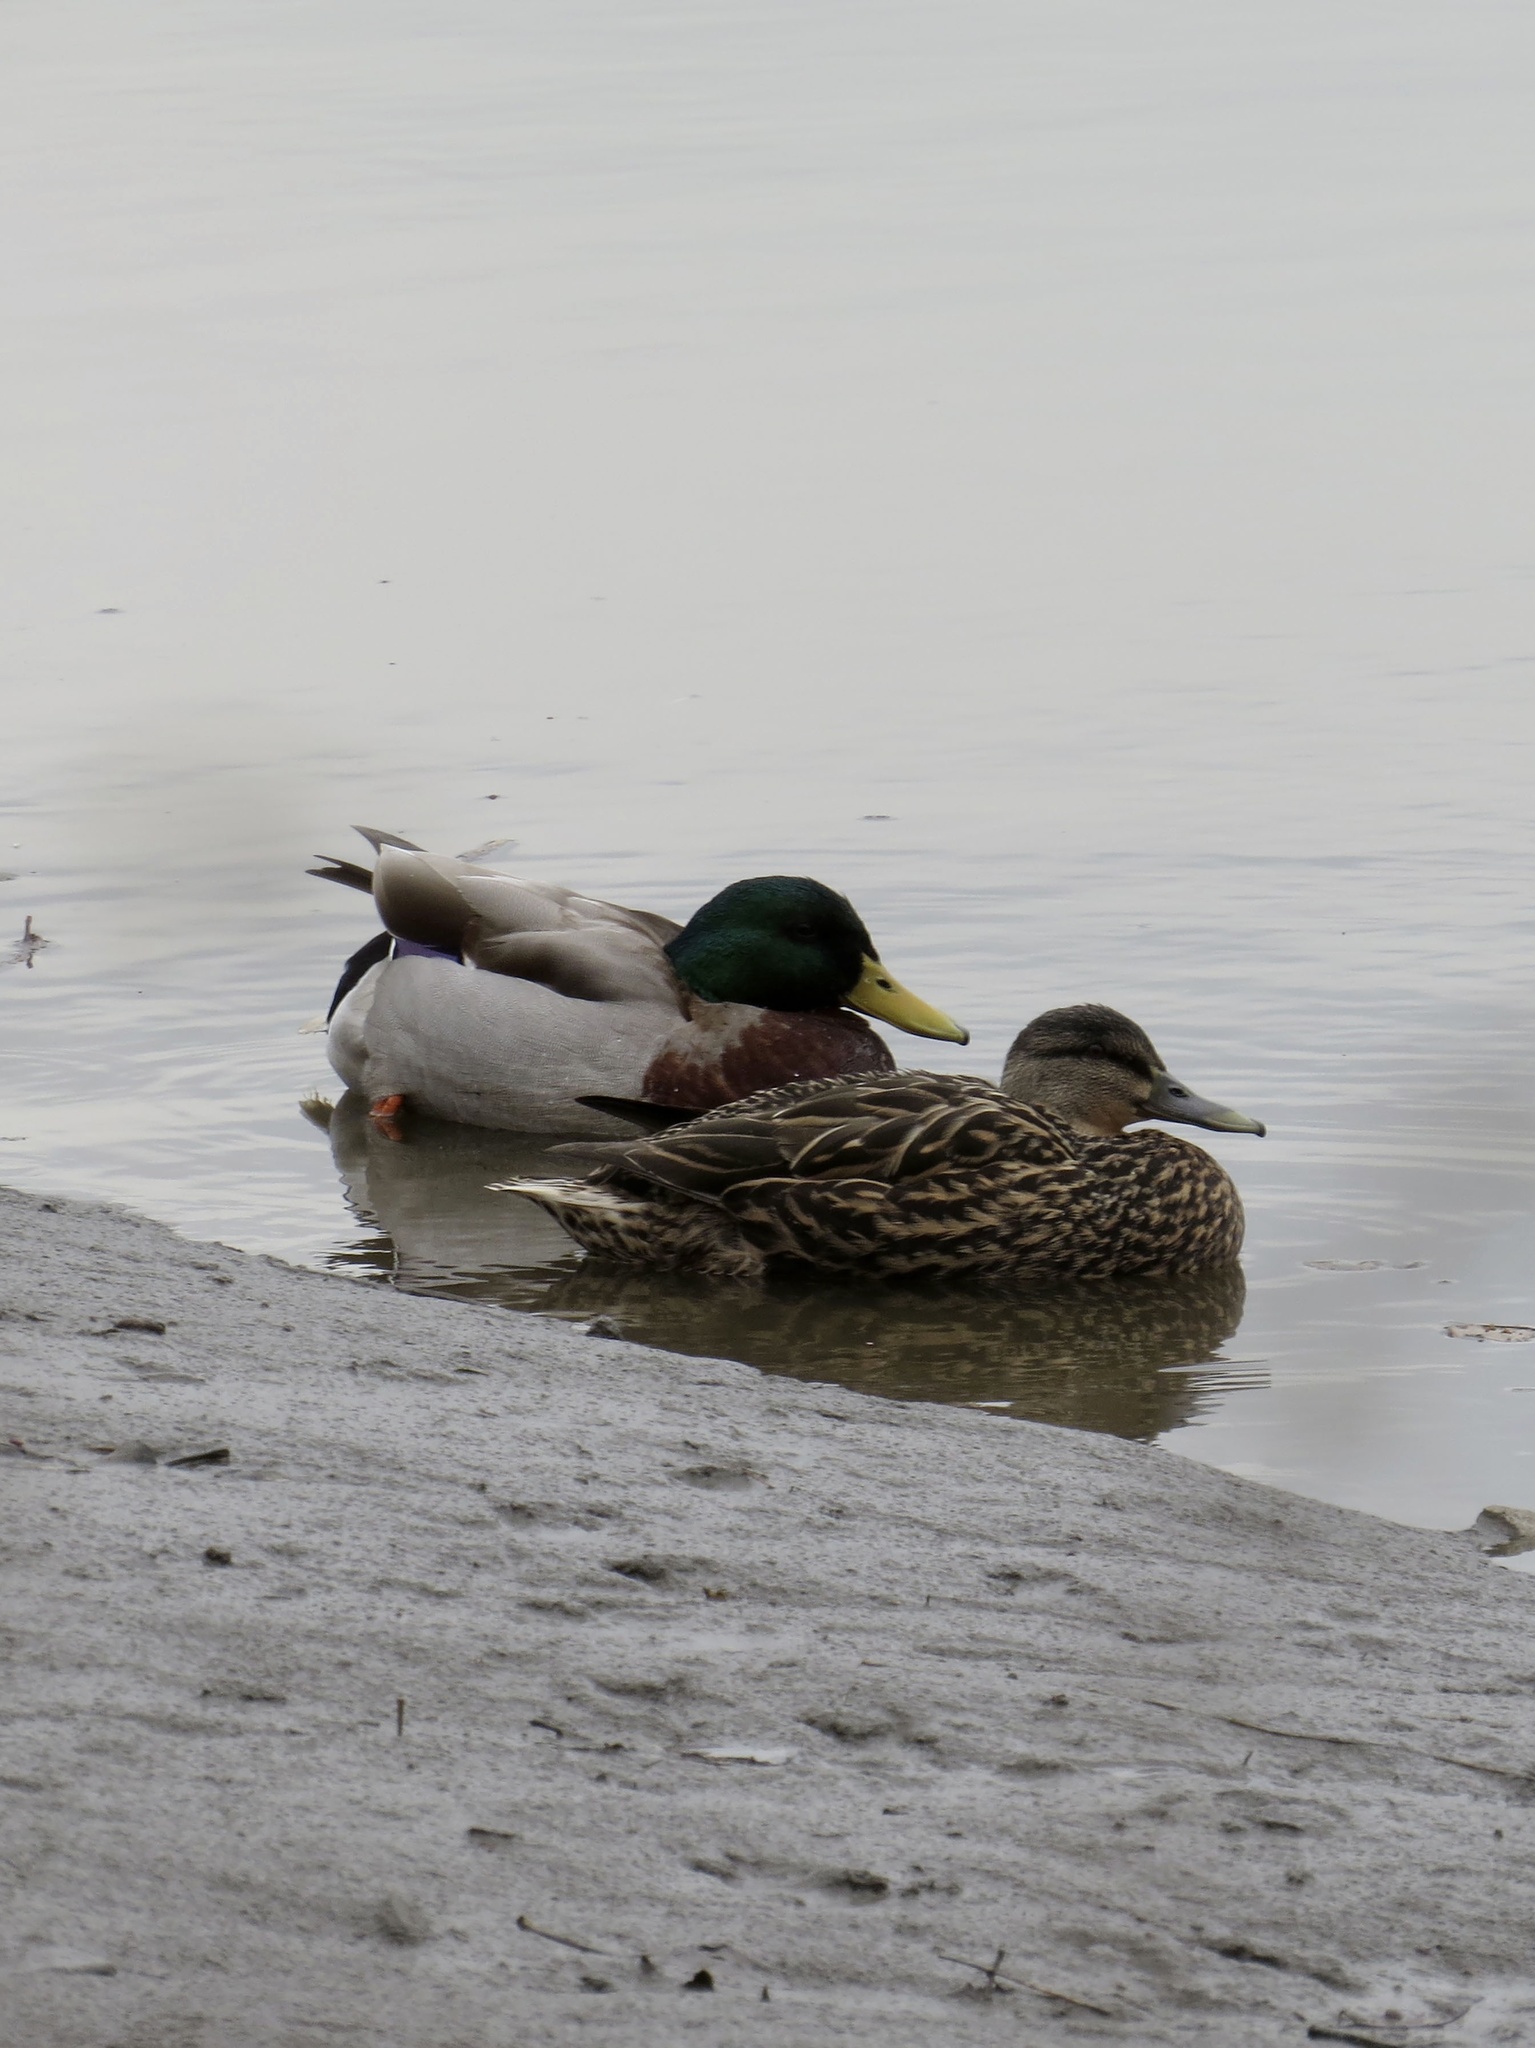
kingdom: Animalia
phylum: Chordata
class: Aves
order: Anseriformes
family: Anatidae
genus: Anas
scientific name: Anas platyrhynchos
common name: Mallard
